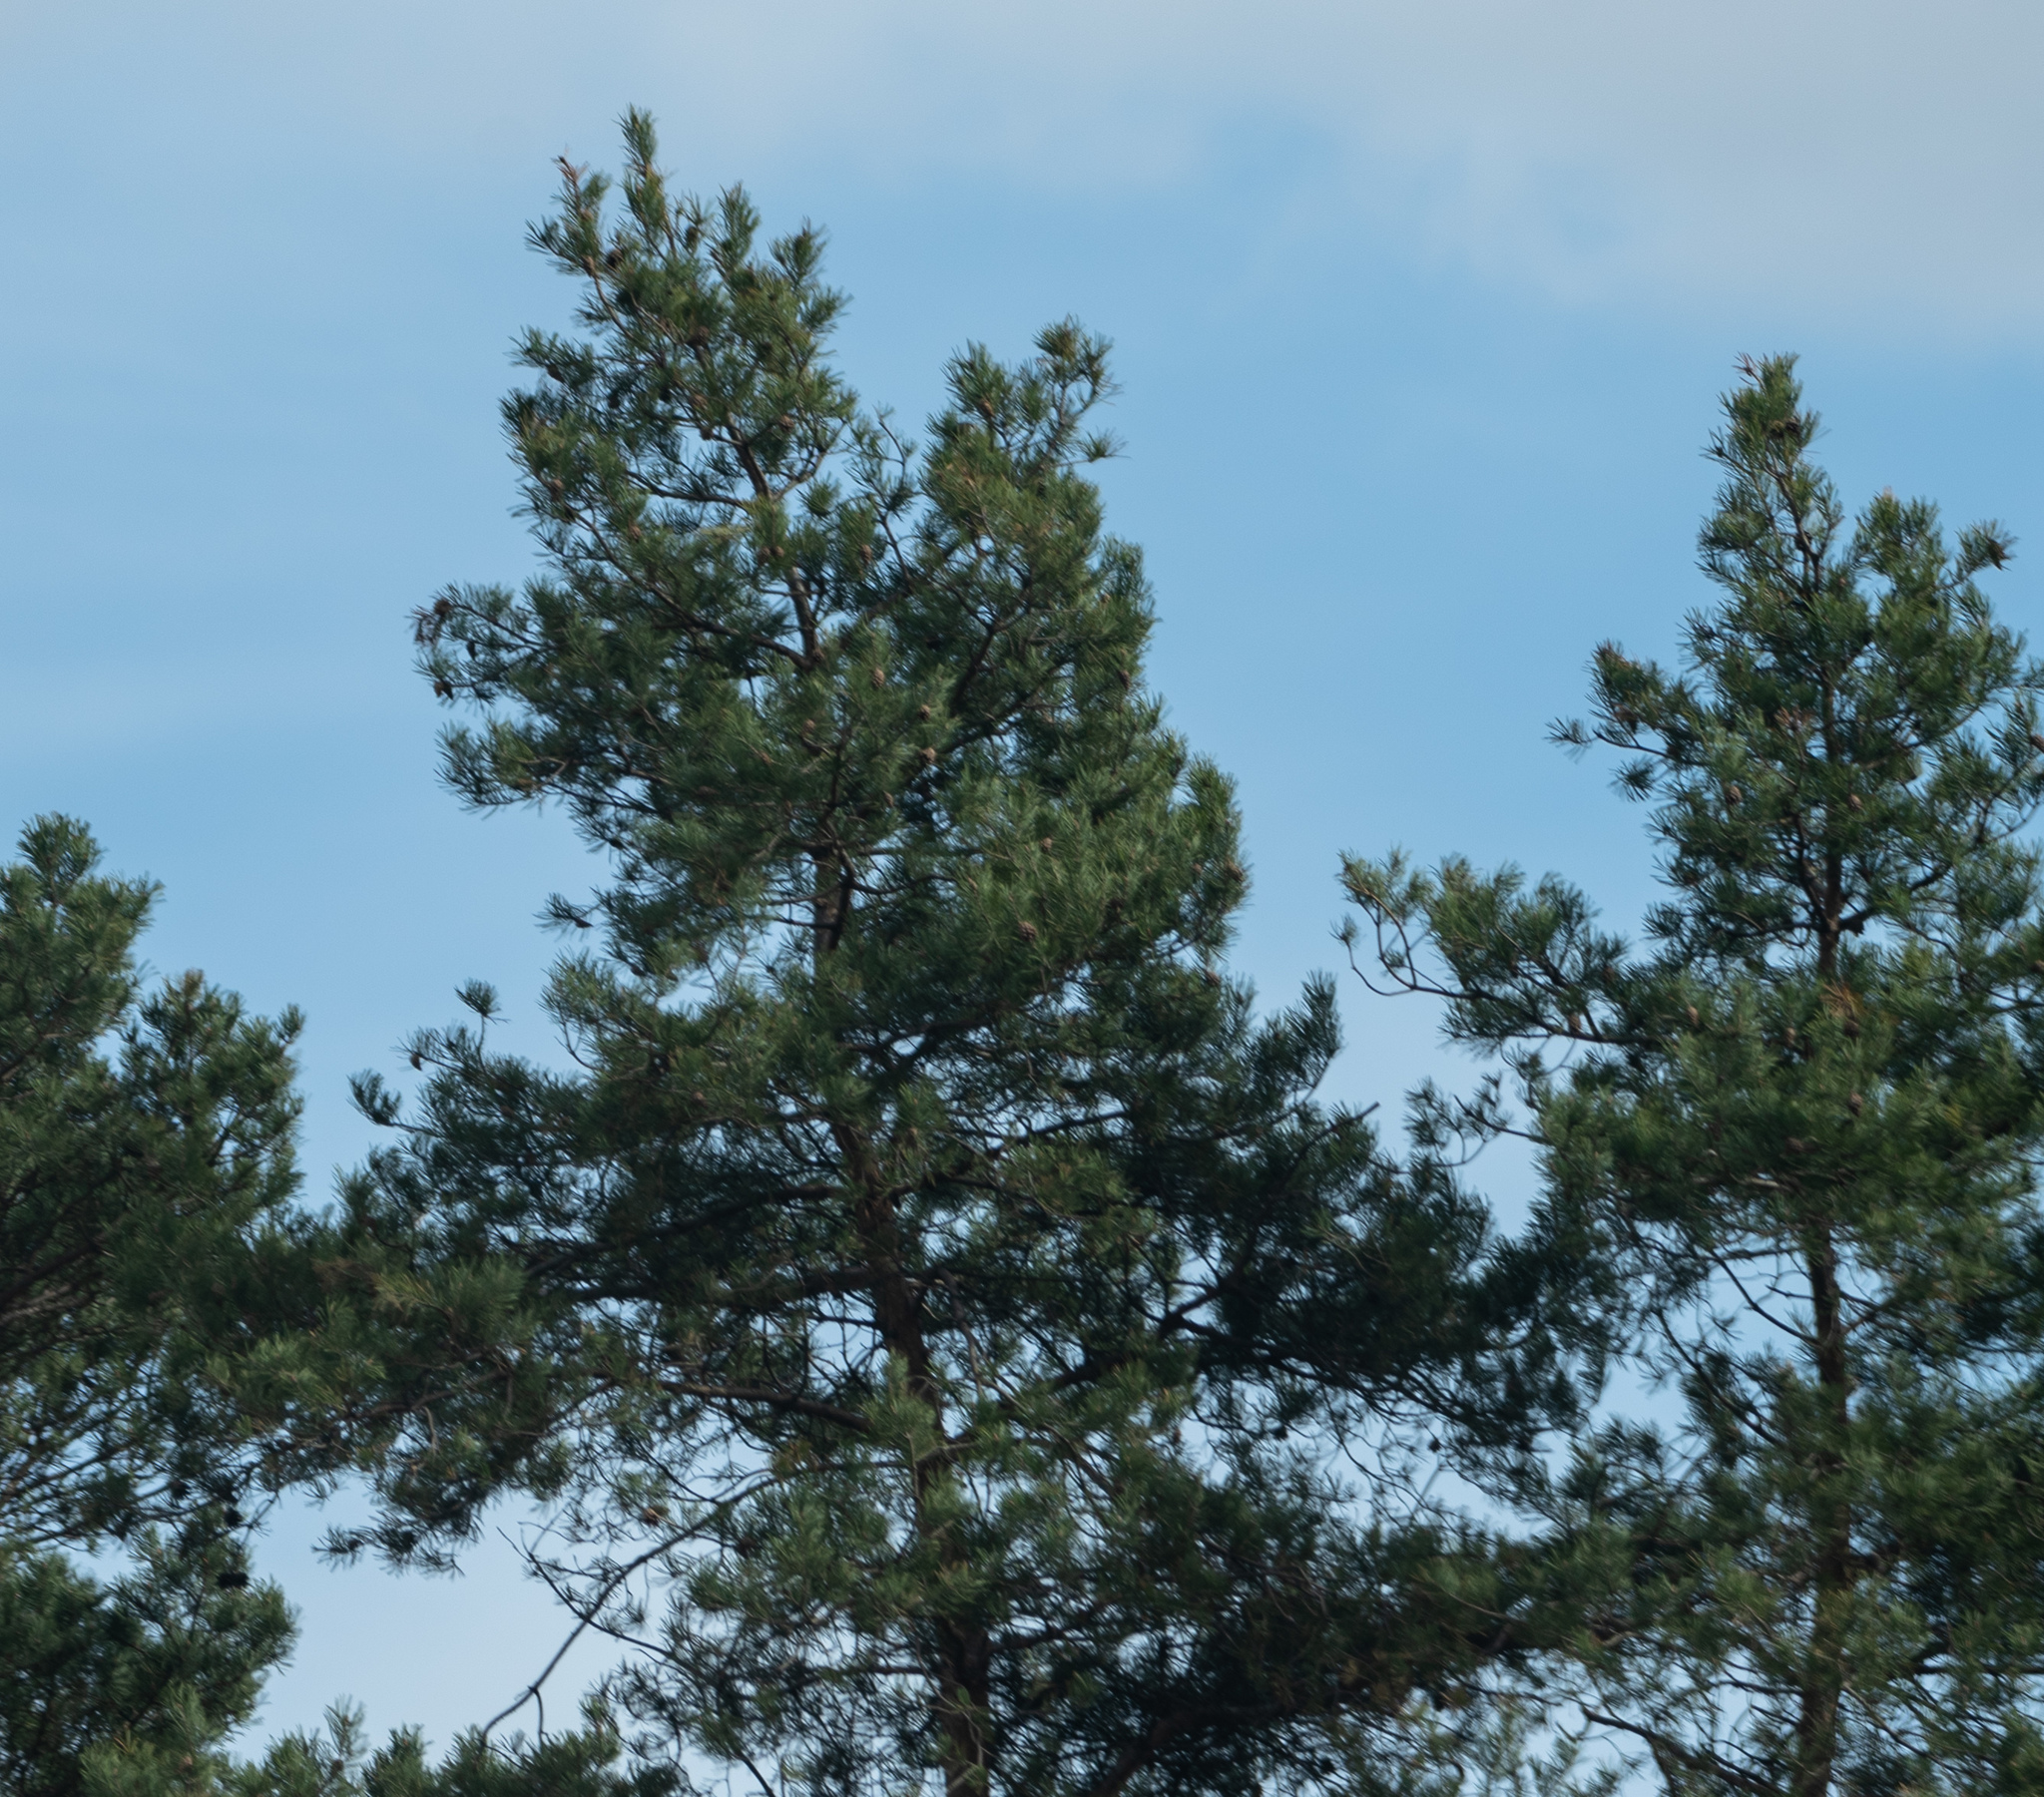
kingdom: Plantae
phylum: Tracheophyta
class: Pinopsida
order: Pinales
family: Pinaceae
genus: Pinus
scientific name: Pinus sylvestris
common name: Scots pine
